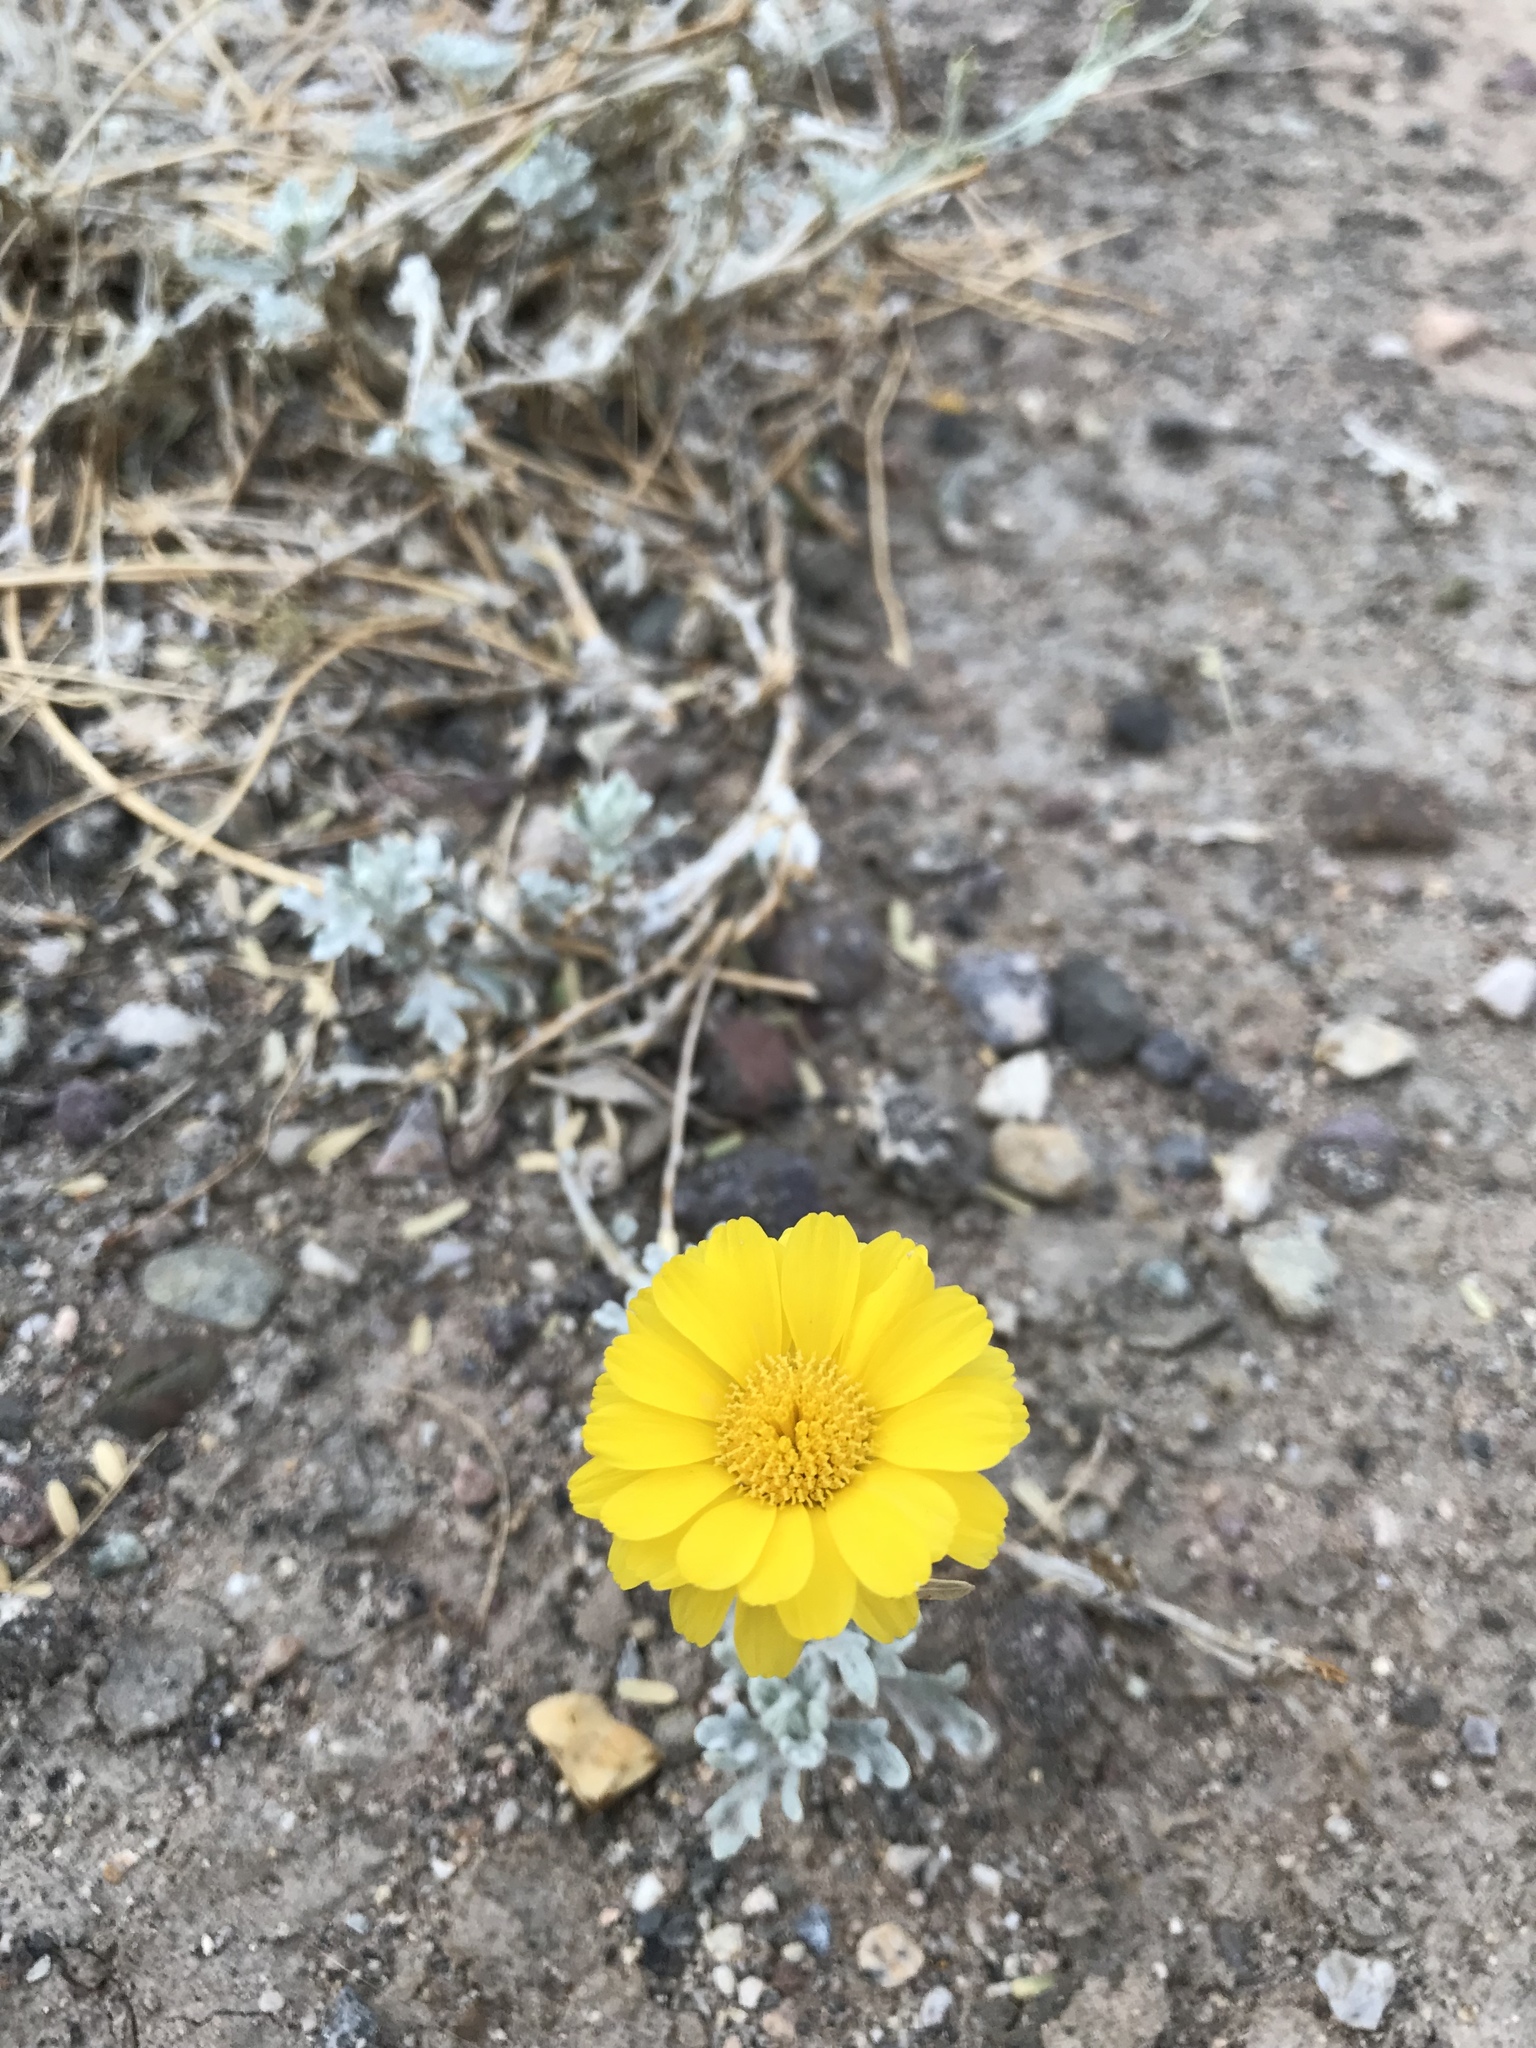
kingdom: Plantae
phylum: Tracheophyta
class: Magnoliopsida
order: Asterales
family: Asteraceae
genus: Baileya
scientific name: Baileya multiradiata
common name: Desert-marigold
